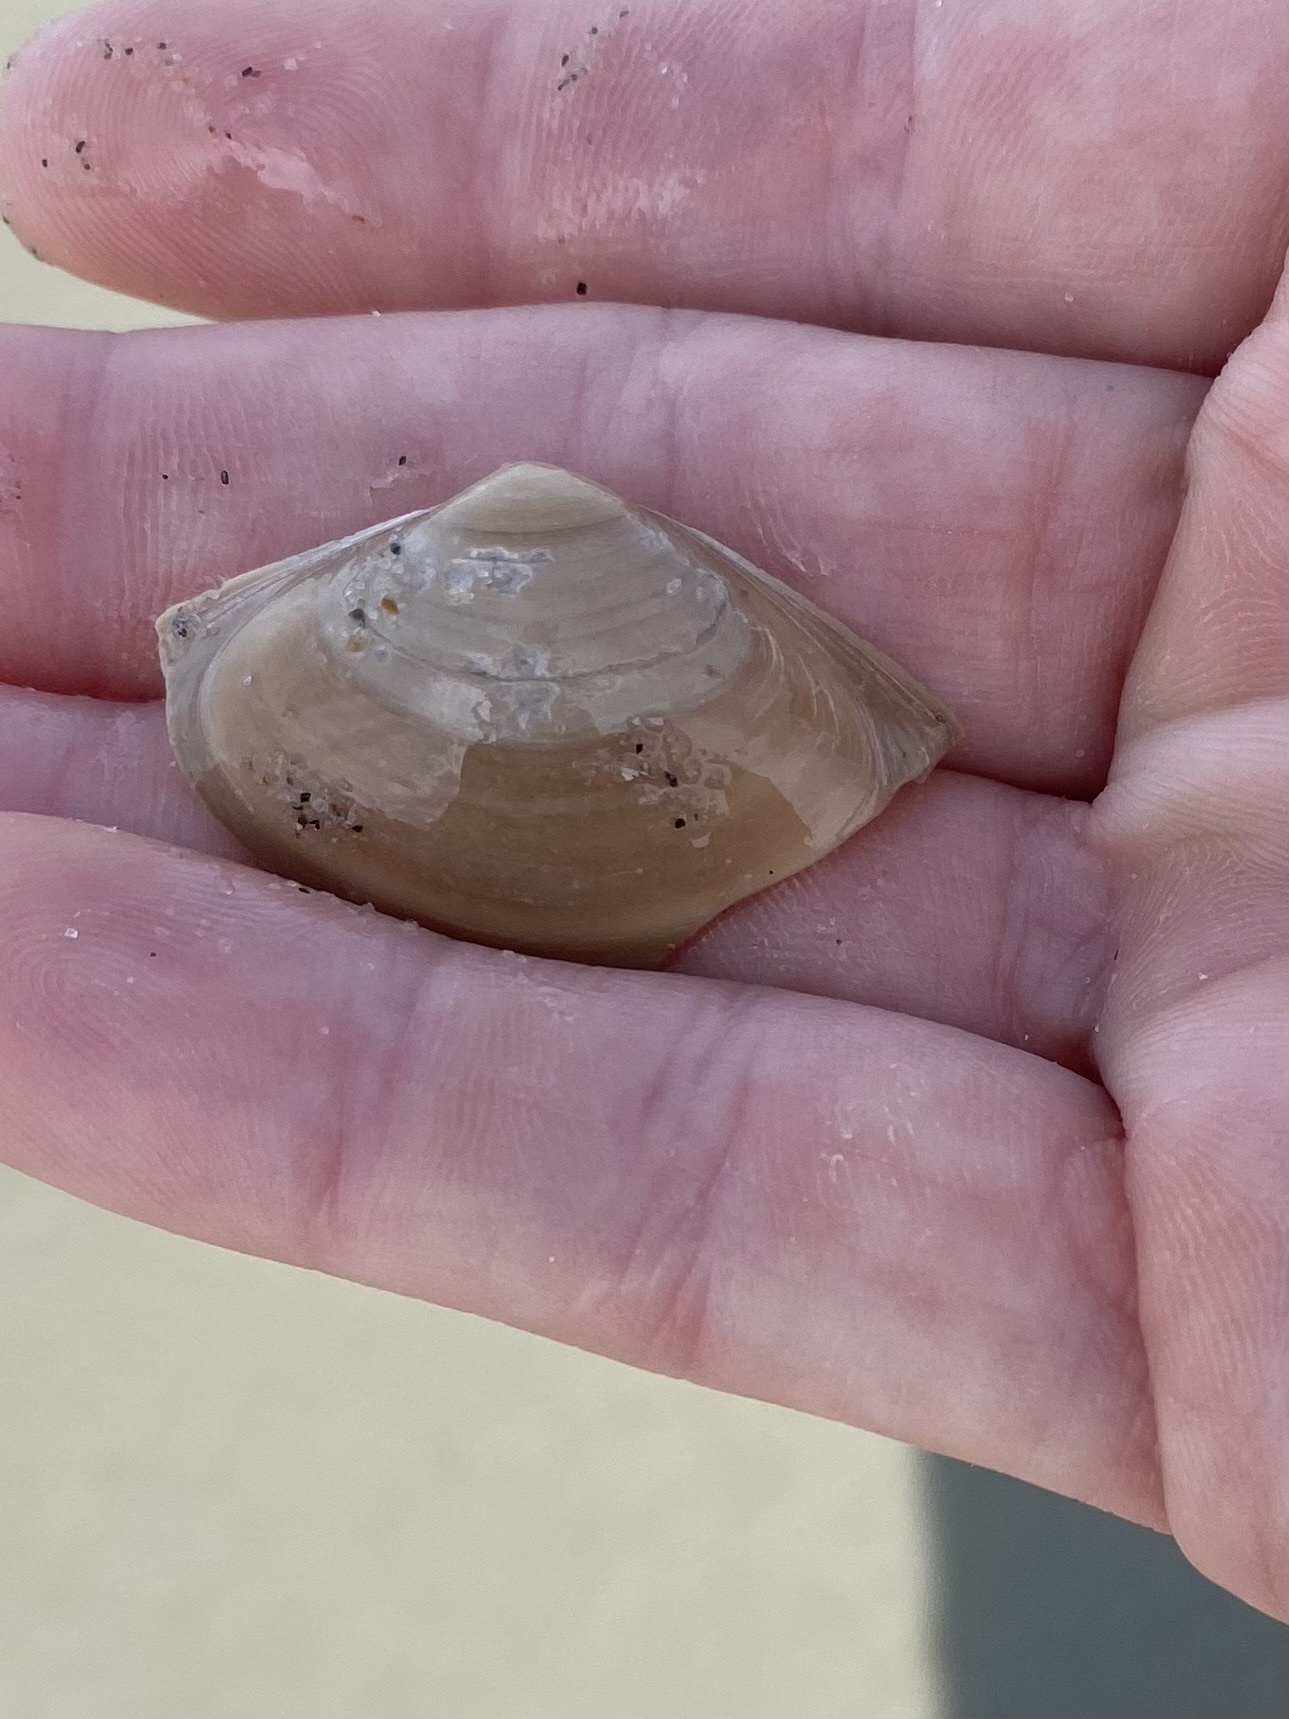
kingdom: Animalia
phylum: Mollusca
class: Bivalvia
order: Venerida
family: Mactridae
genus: Spisula
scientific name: Spisula solidissima
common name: Atlantic surf clam
